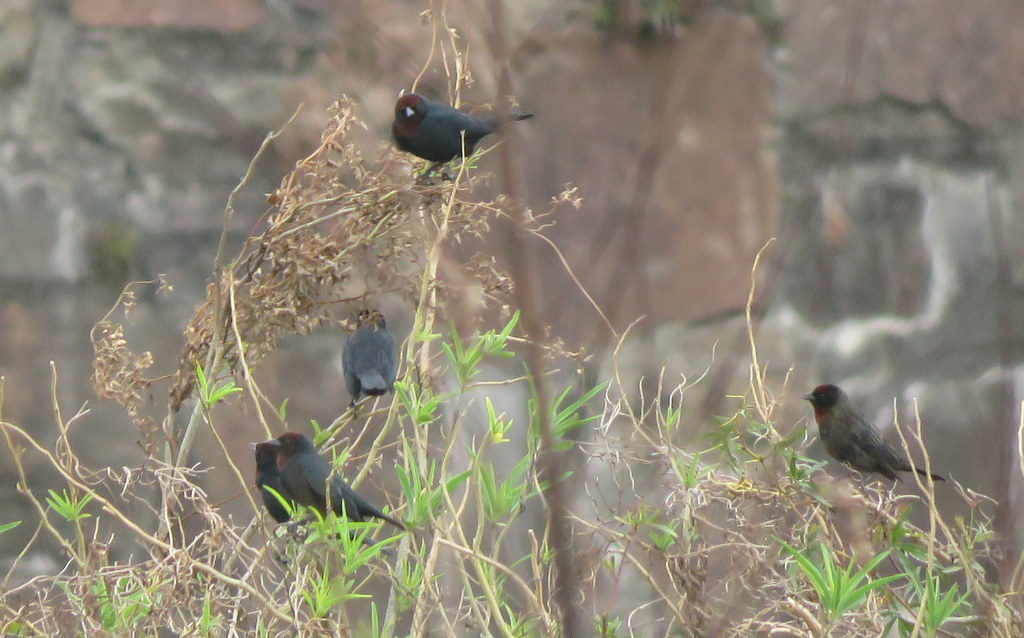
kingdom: Animalia
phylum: Chordata
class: Aves
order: Passeriformes
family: Icteridae
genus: Chrysomus
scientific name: Chrysomus ruficapillus
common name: Chestnut-capped blackbird
